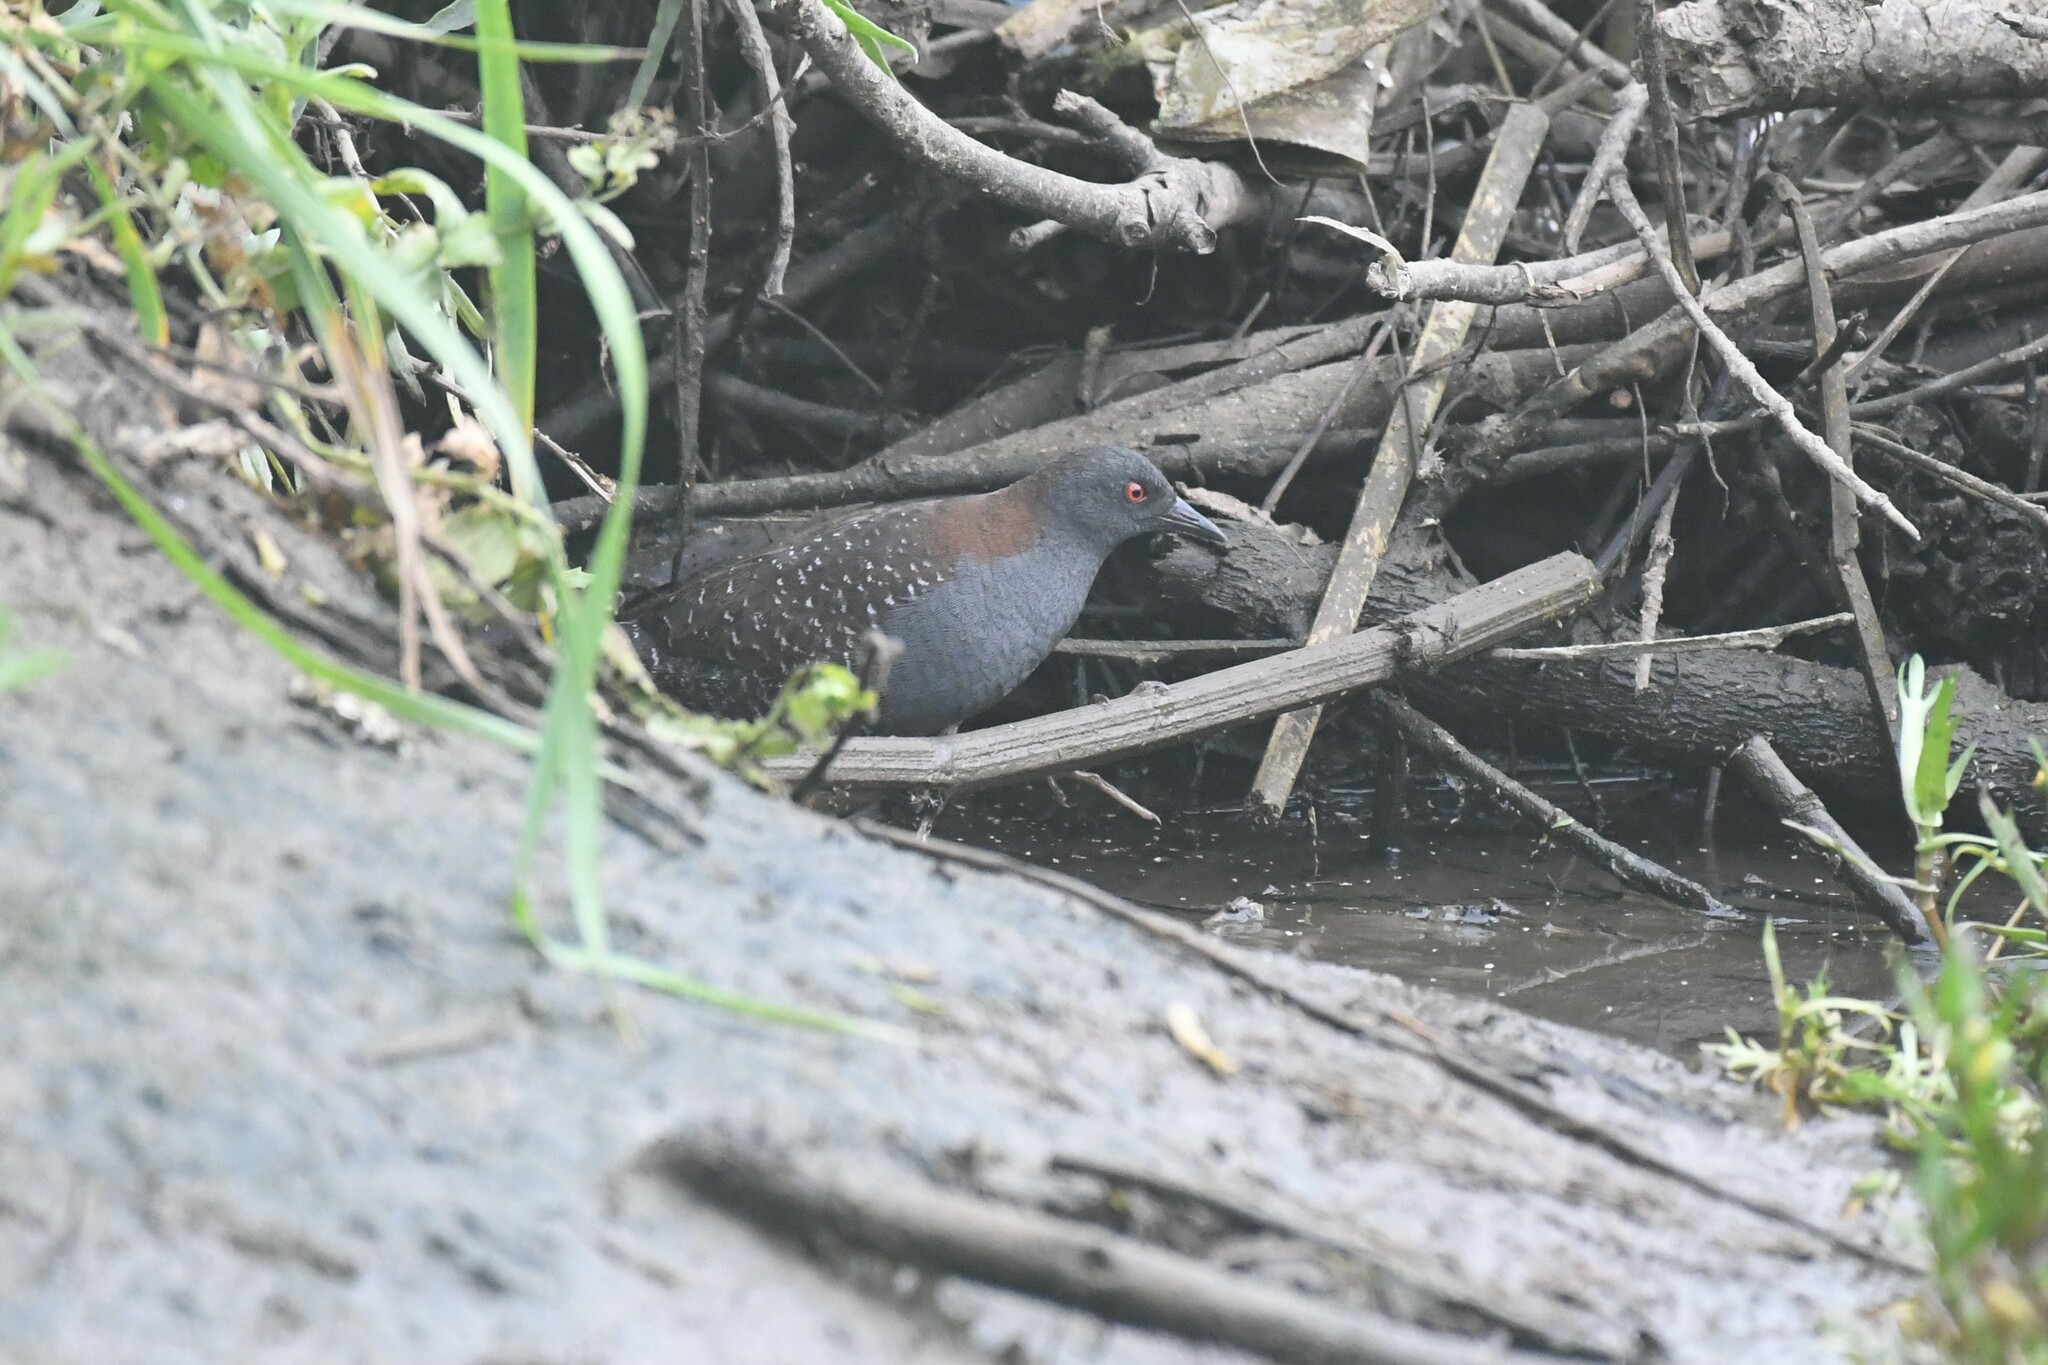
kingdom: Animalia
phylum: Chordata
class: Aves
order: Gruiformes
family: Rallidae
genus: Laterallus
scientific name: Laterallus jamaicensis
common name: Black rail
